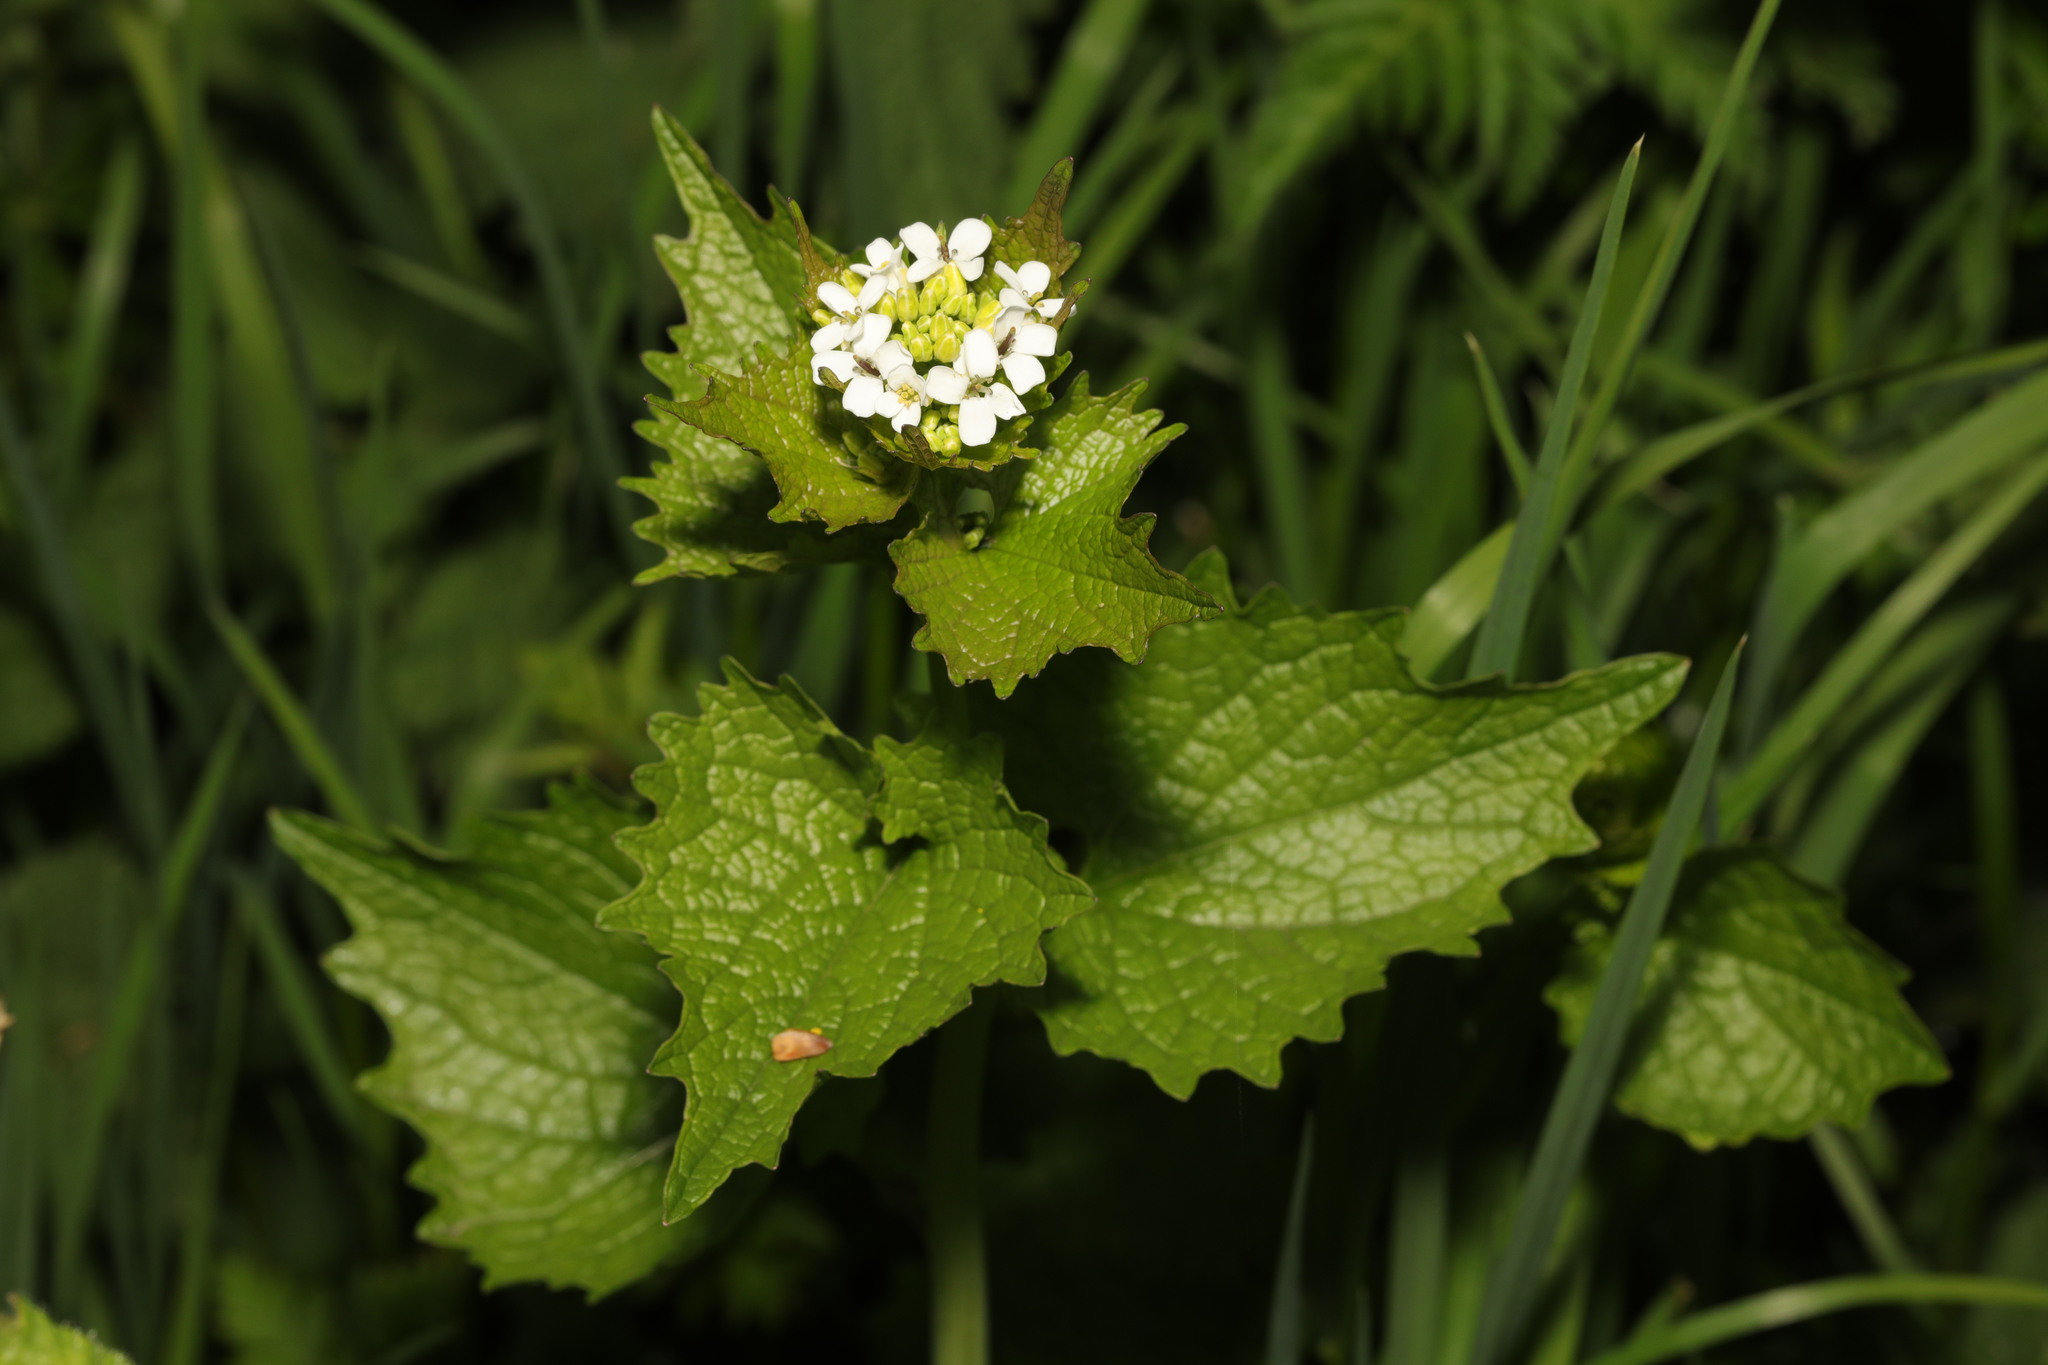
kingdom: Plantae
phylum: Tracheophyta
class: Magnoliopsida
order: Brassicales
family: Brassicaceae
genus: Alliaria
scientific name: Alliaria petiolata
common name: Garlic mustard
